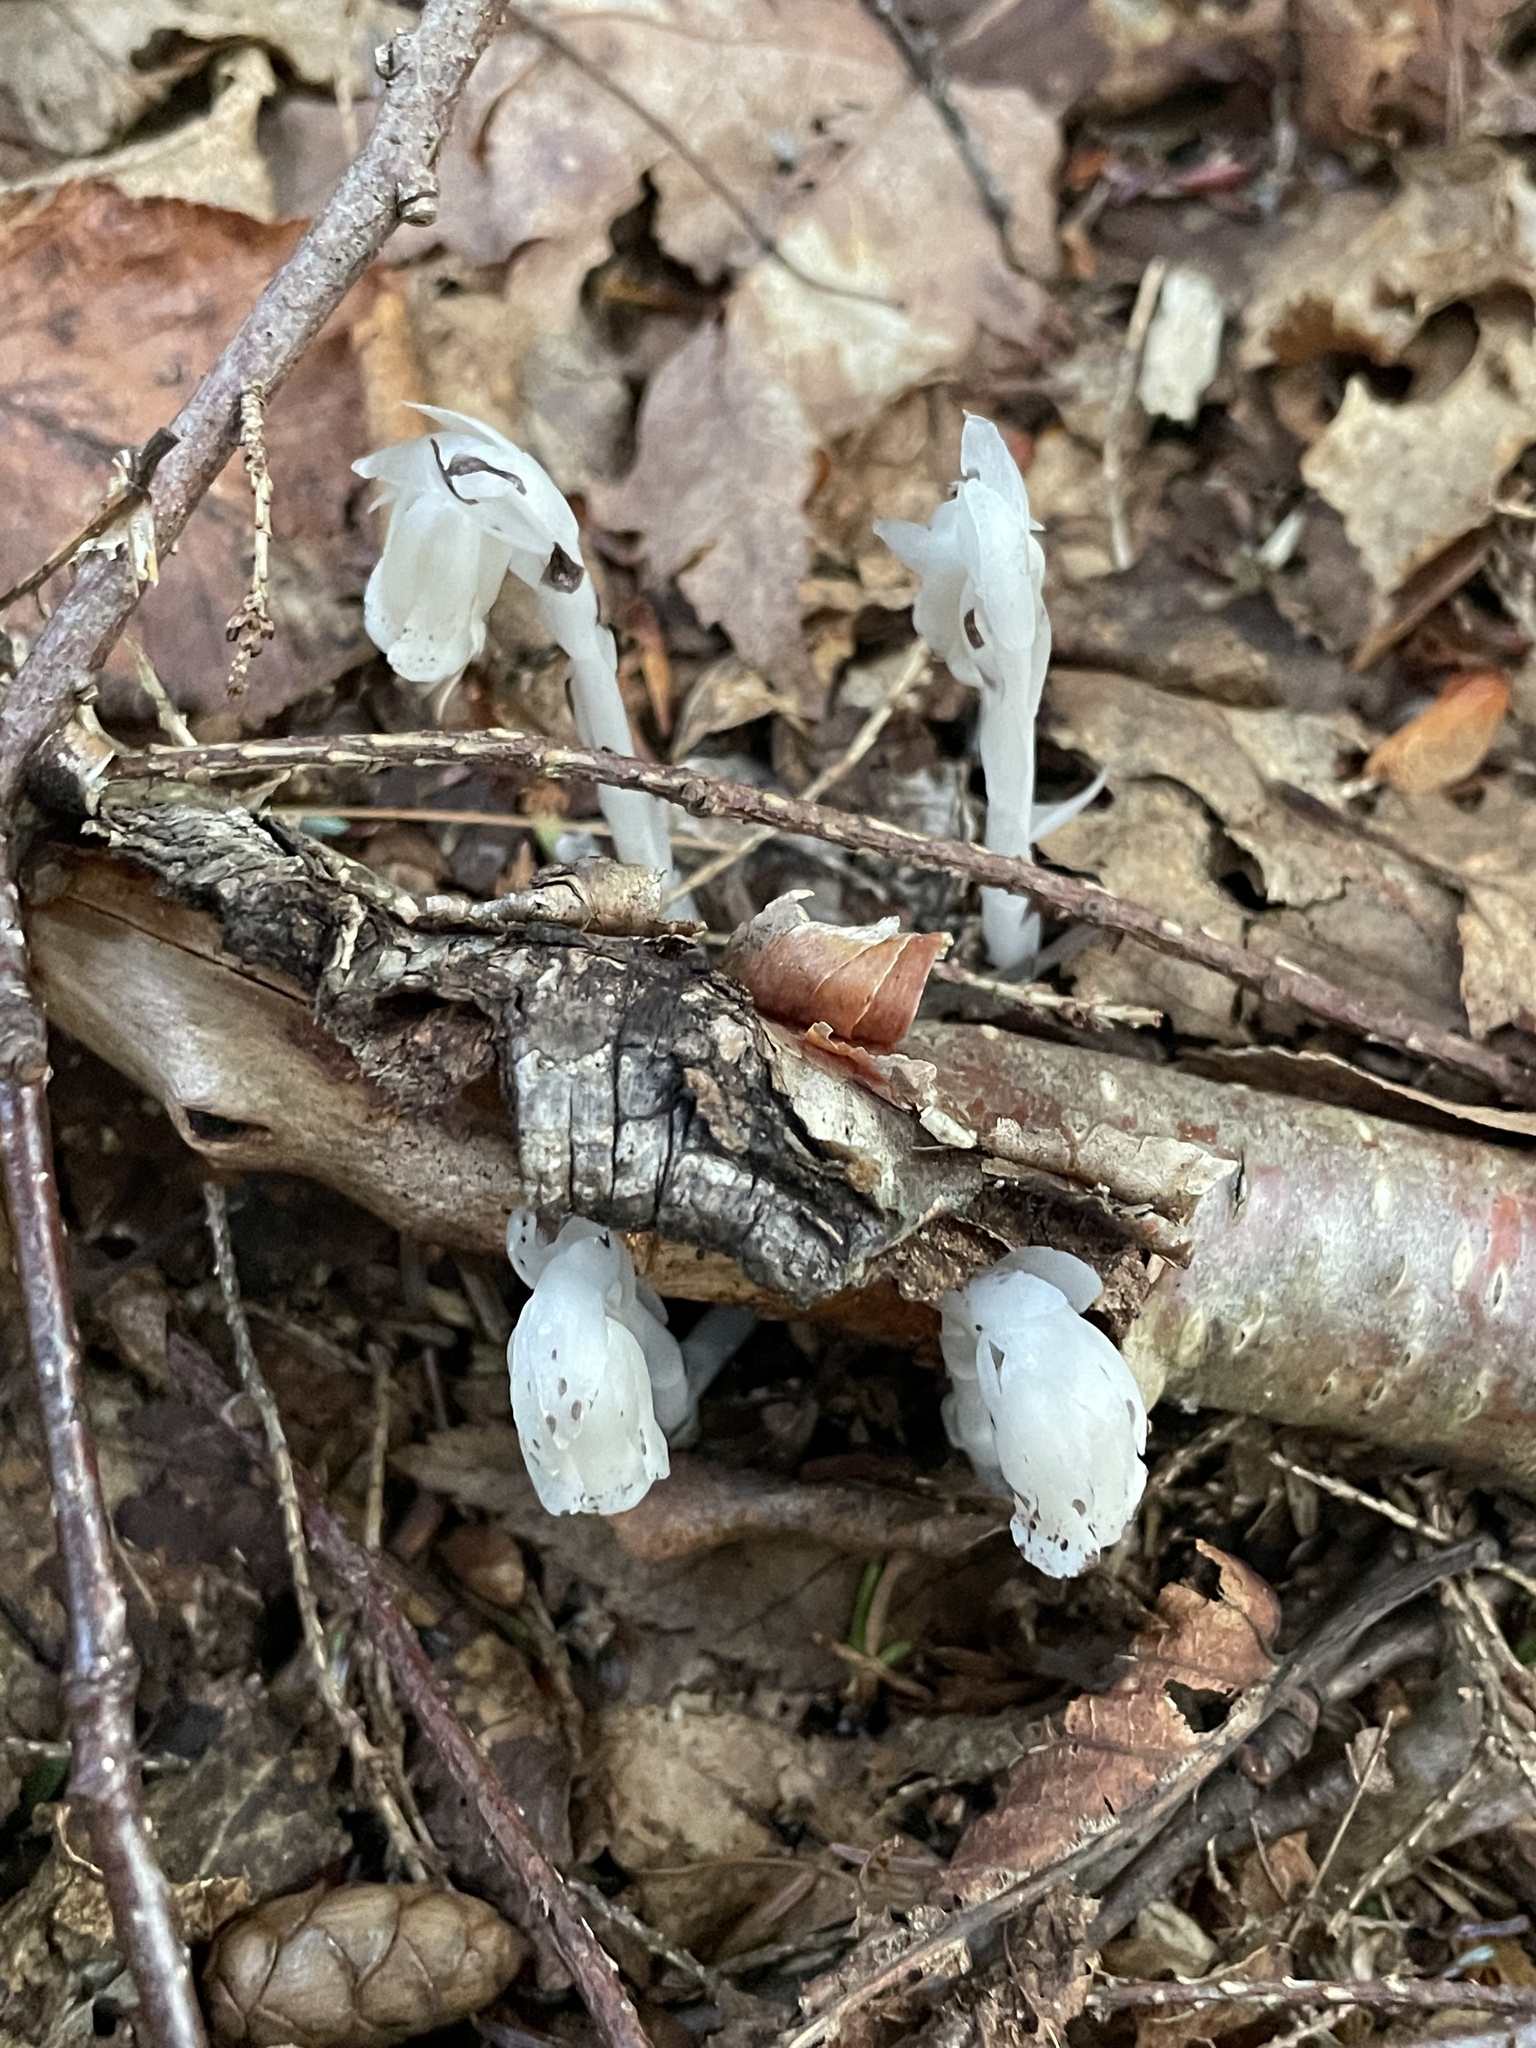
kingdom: Plantae
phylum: Tracheophyta
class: Magnoliopsida
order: Ericales
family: Ericaceae
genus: Monotropa
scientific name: Monotropa uniflora
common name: Convulsion root
